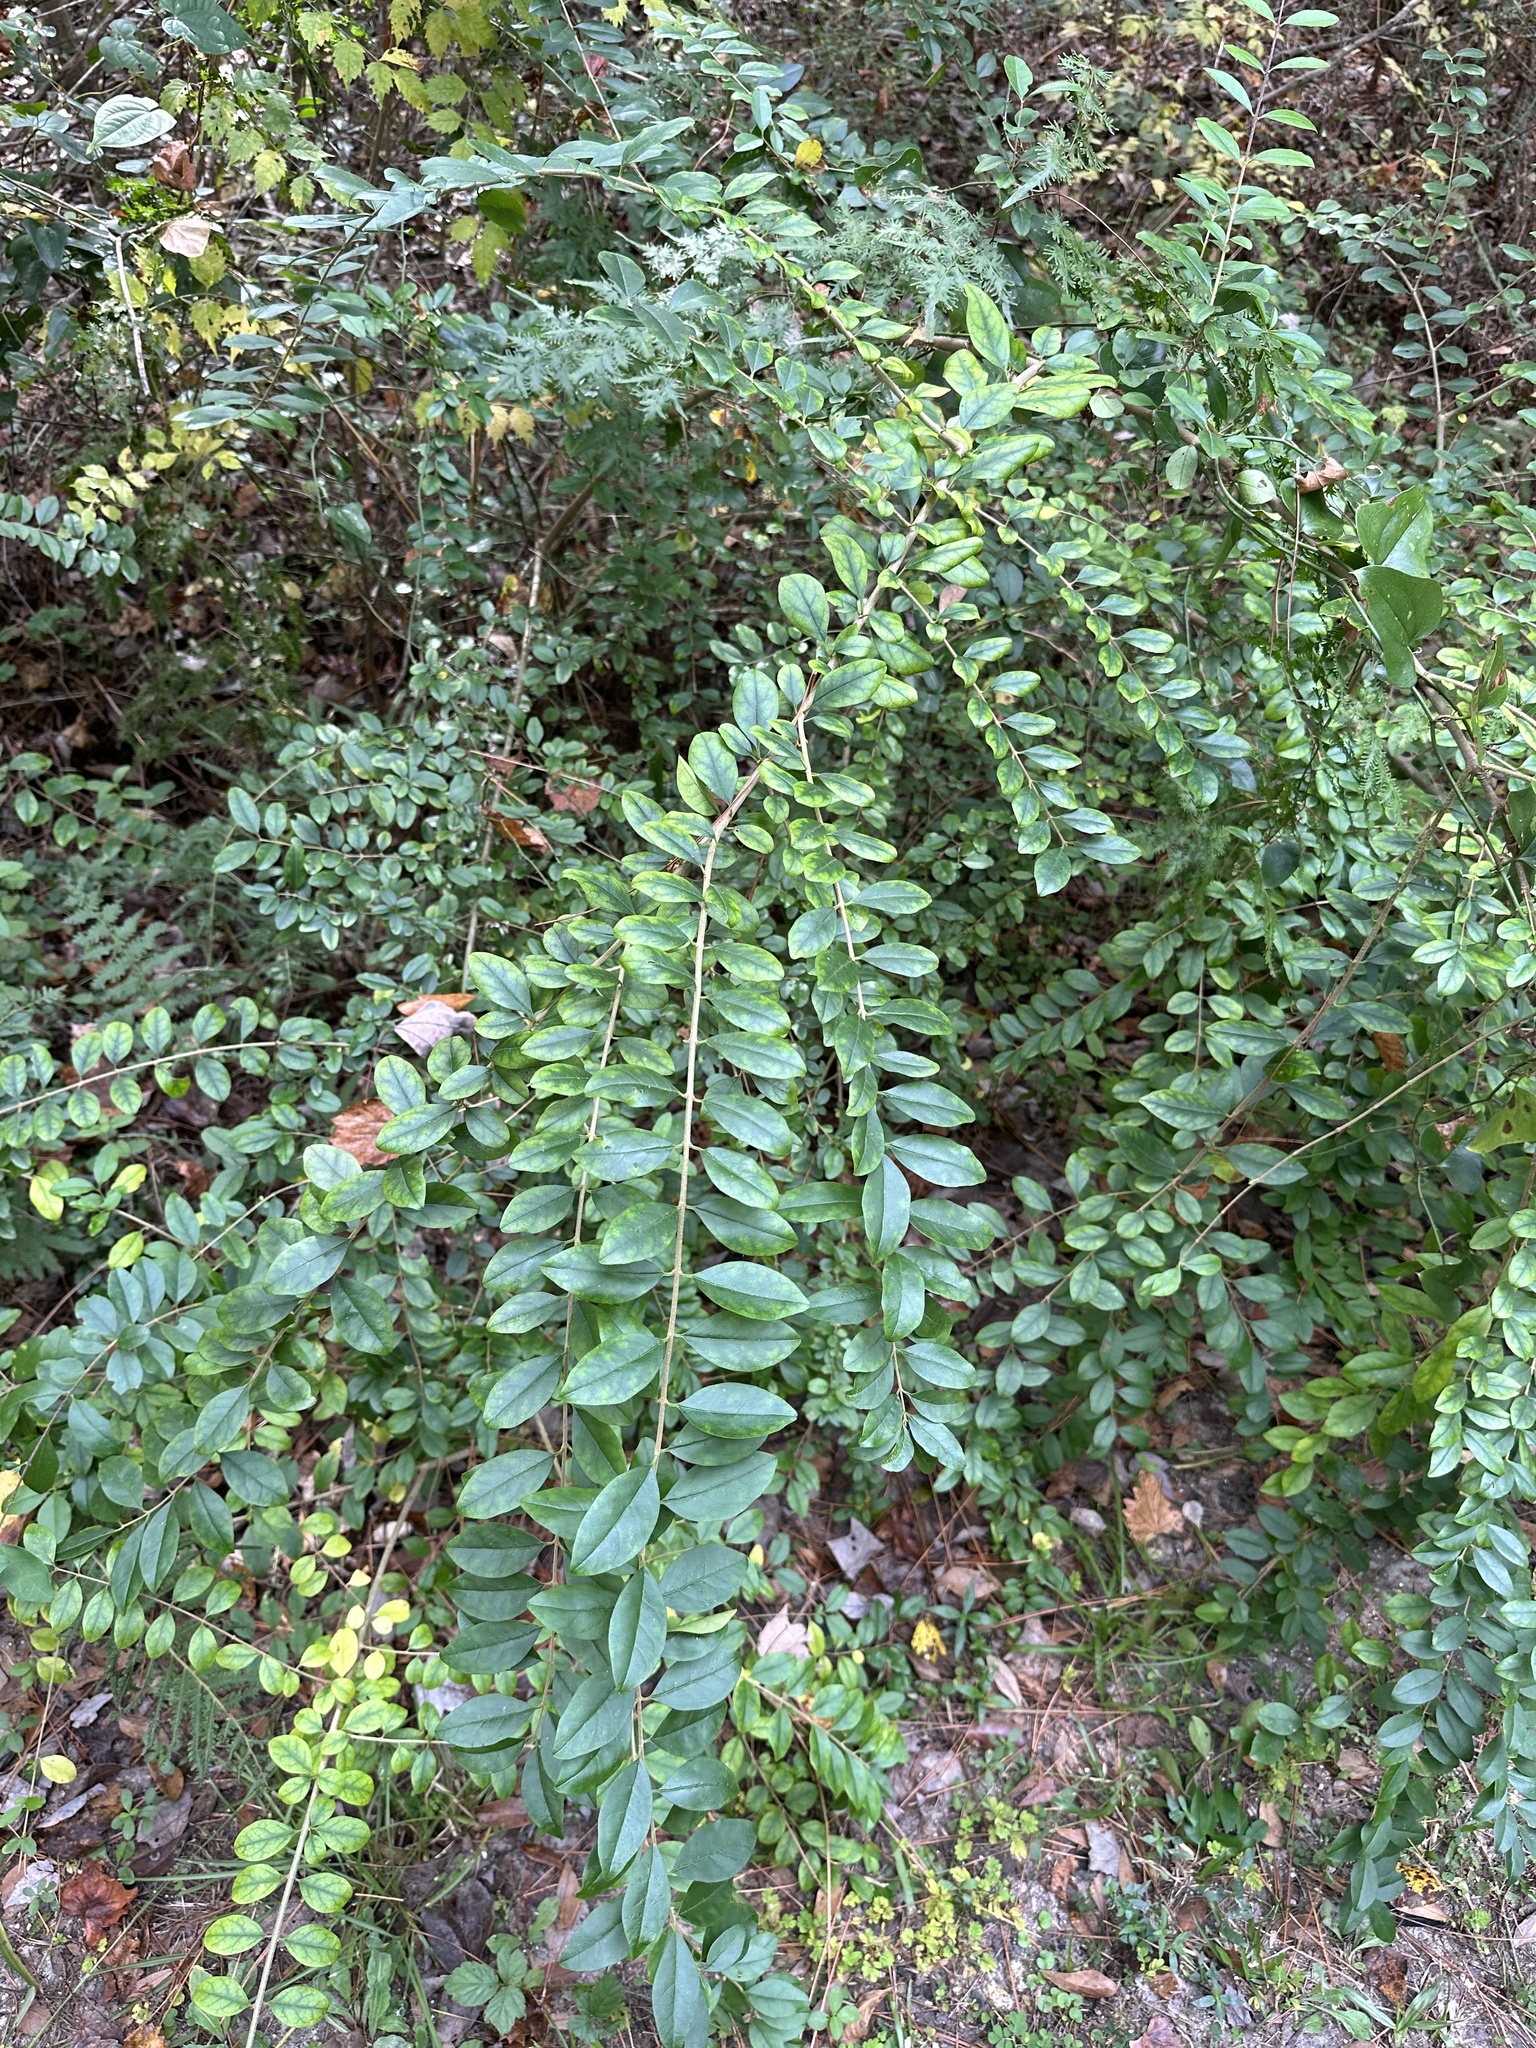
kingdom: Plantae
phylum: Tracheophyta
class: Magnoliopsida
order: Lamiales
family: Oleaceae
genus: Ligustrum
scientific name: Ligustrum sinense
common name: Chinese privet
